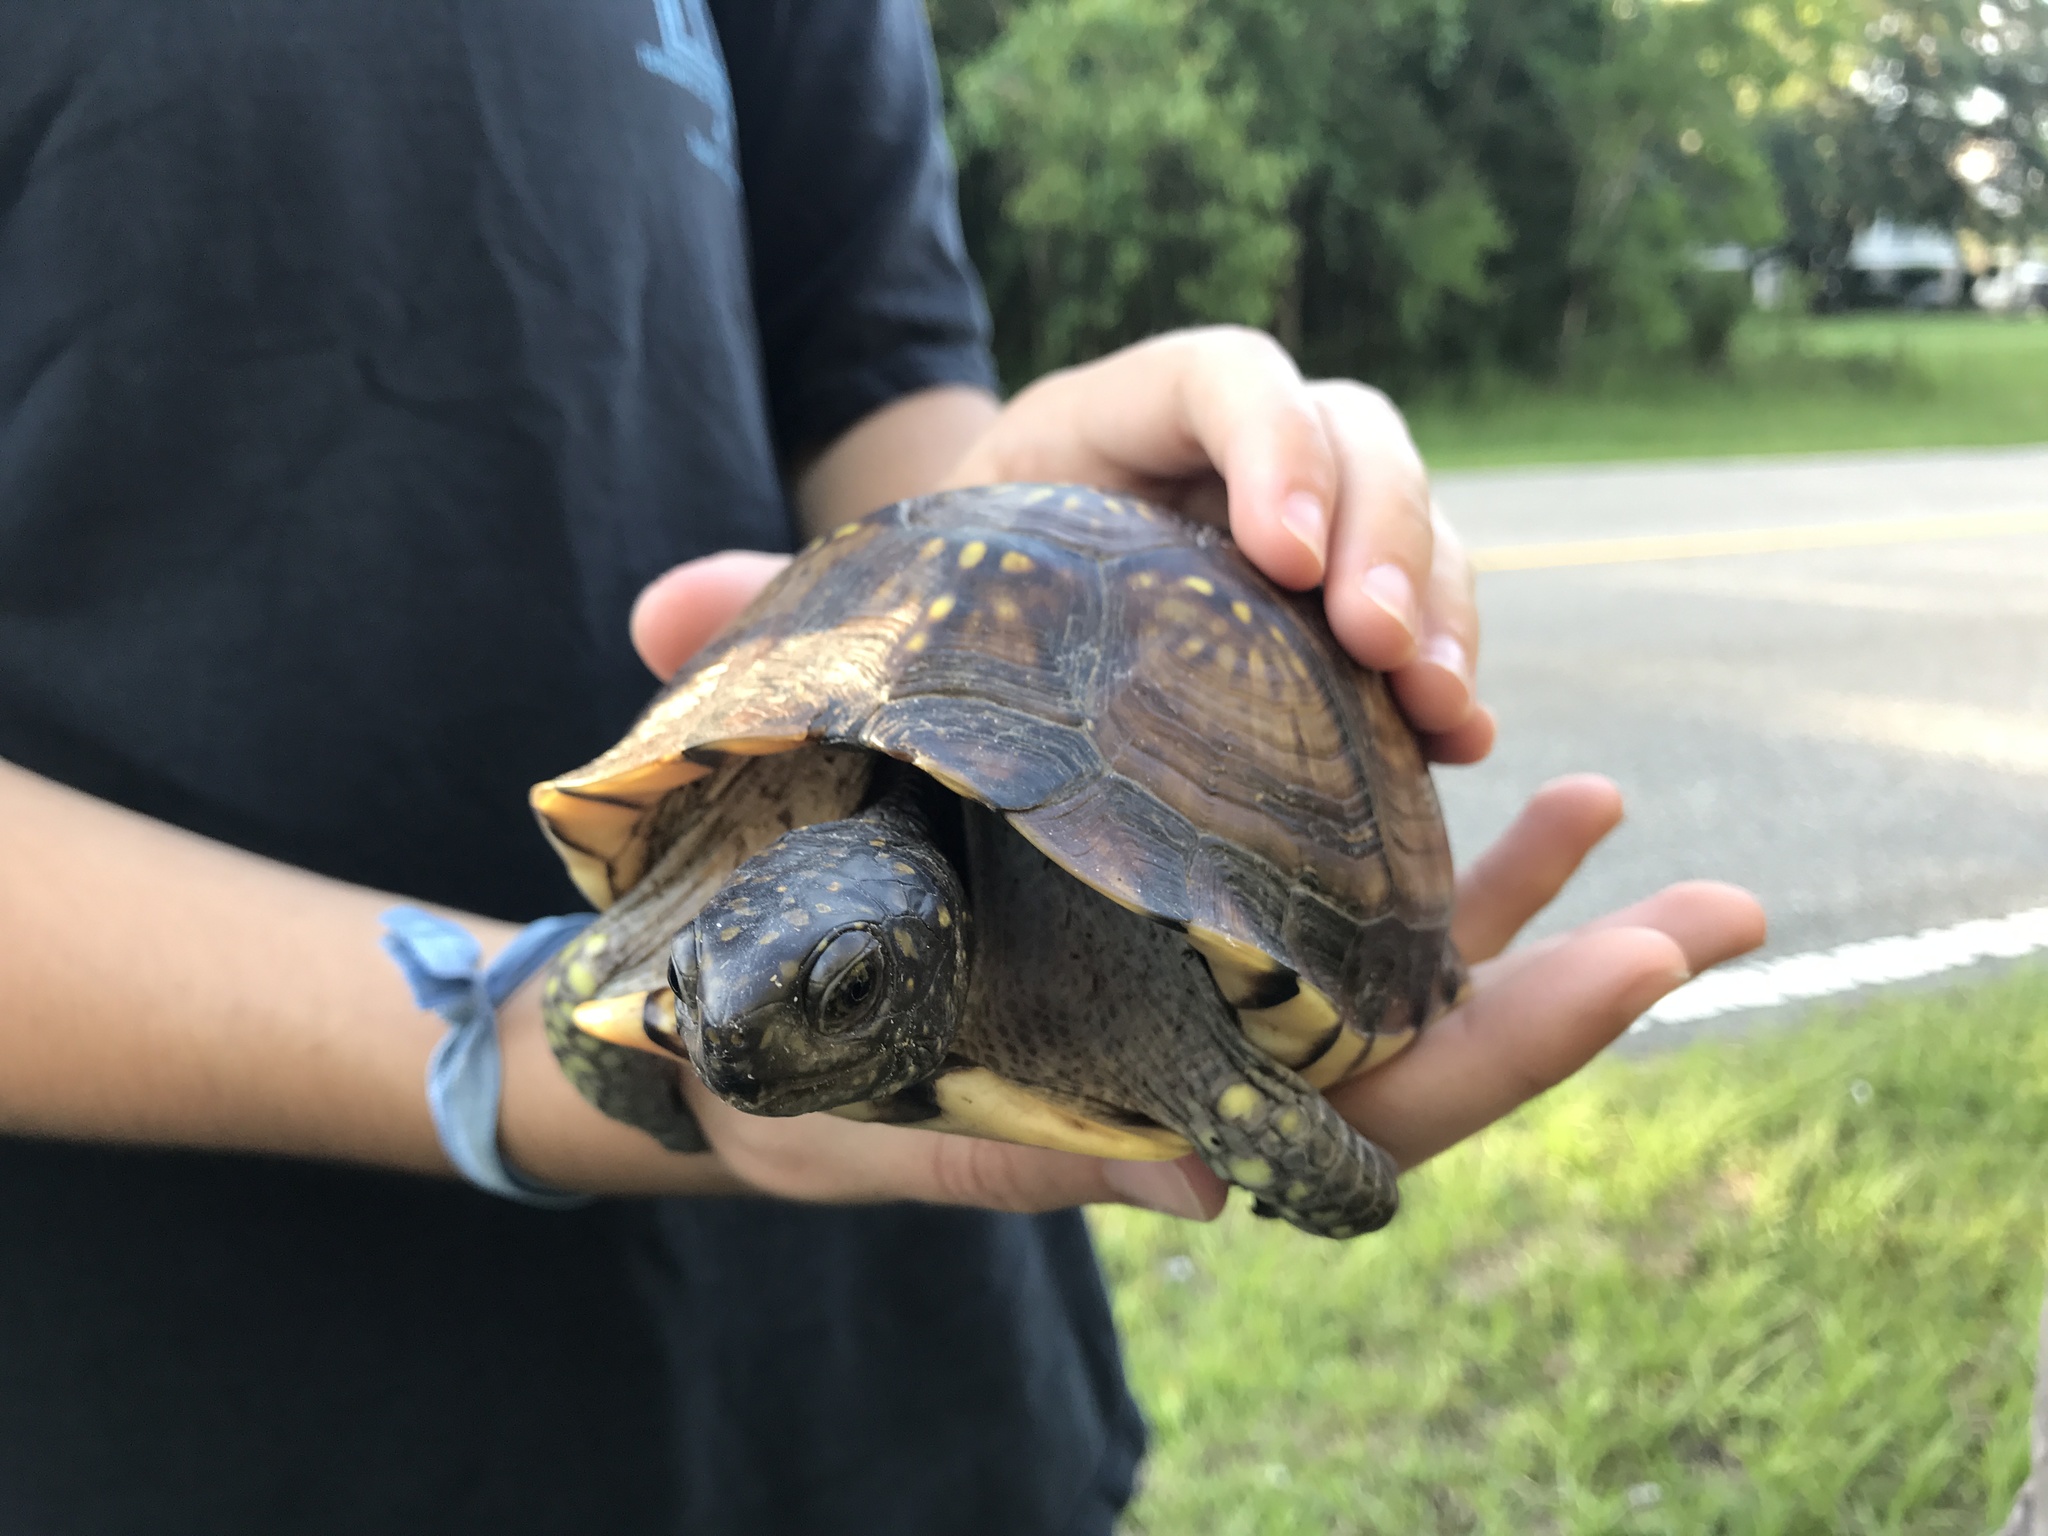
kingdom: Animalia
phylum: Chordata
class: Testudines
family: Emydidae
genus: Terrapene
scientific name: Terrapene carolina
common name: Common box turtle
